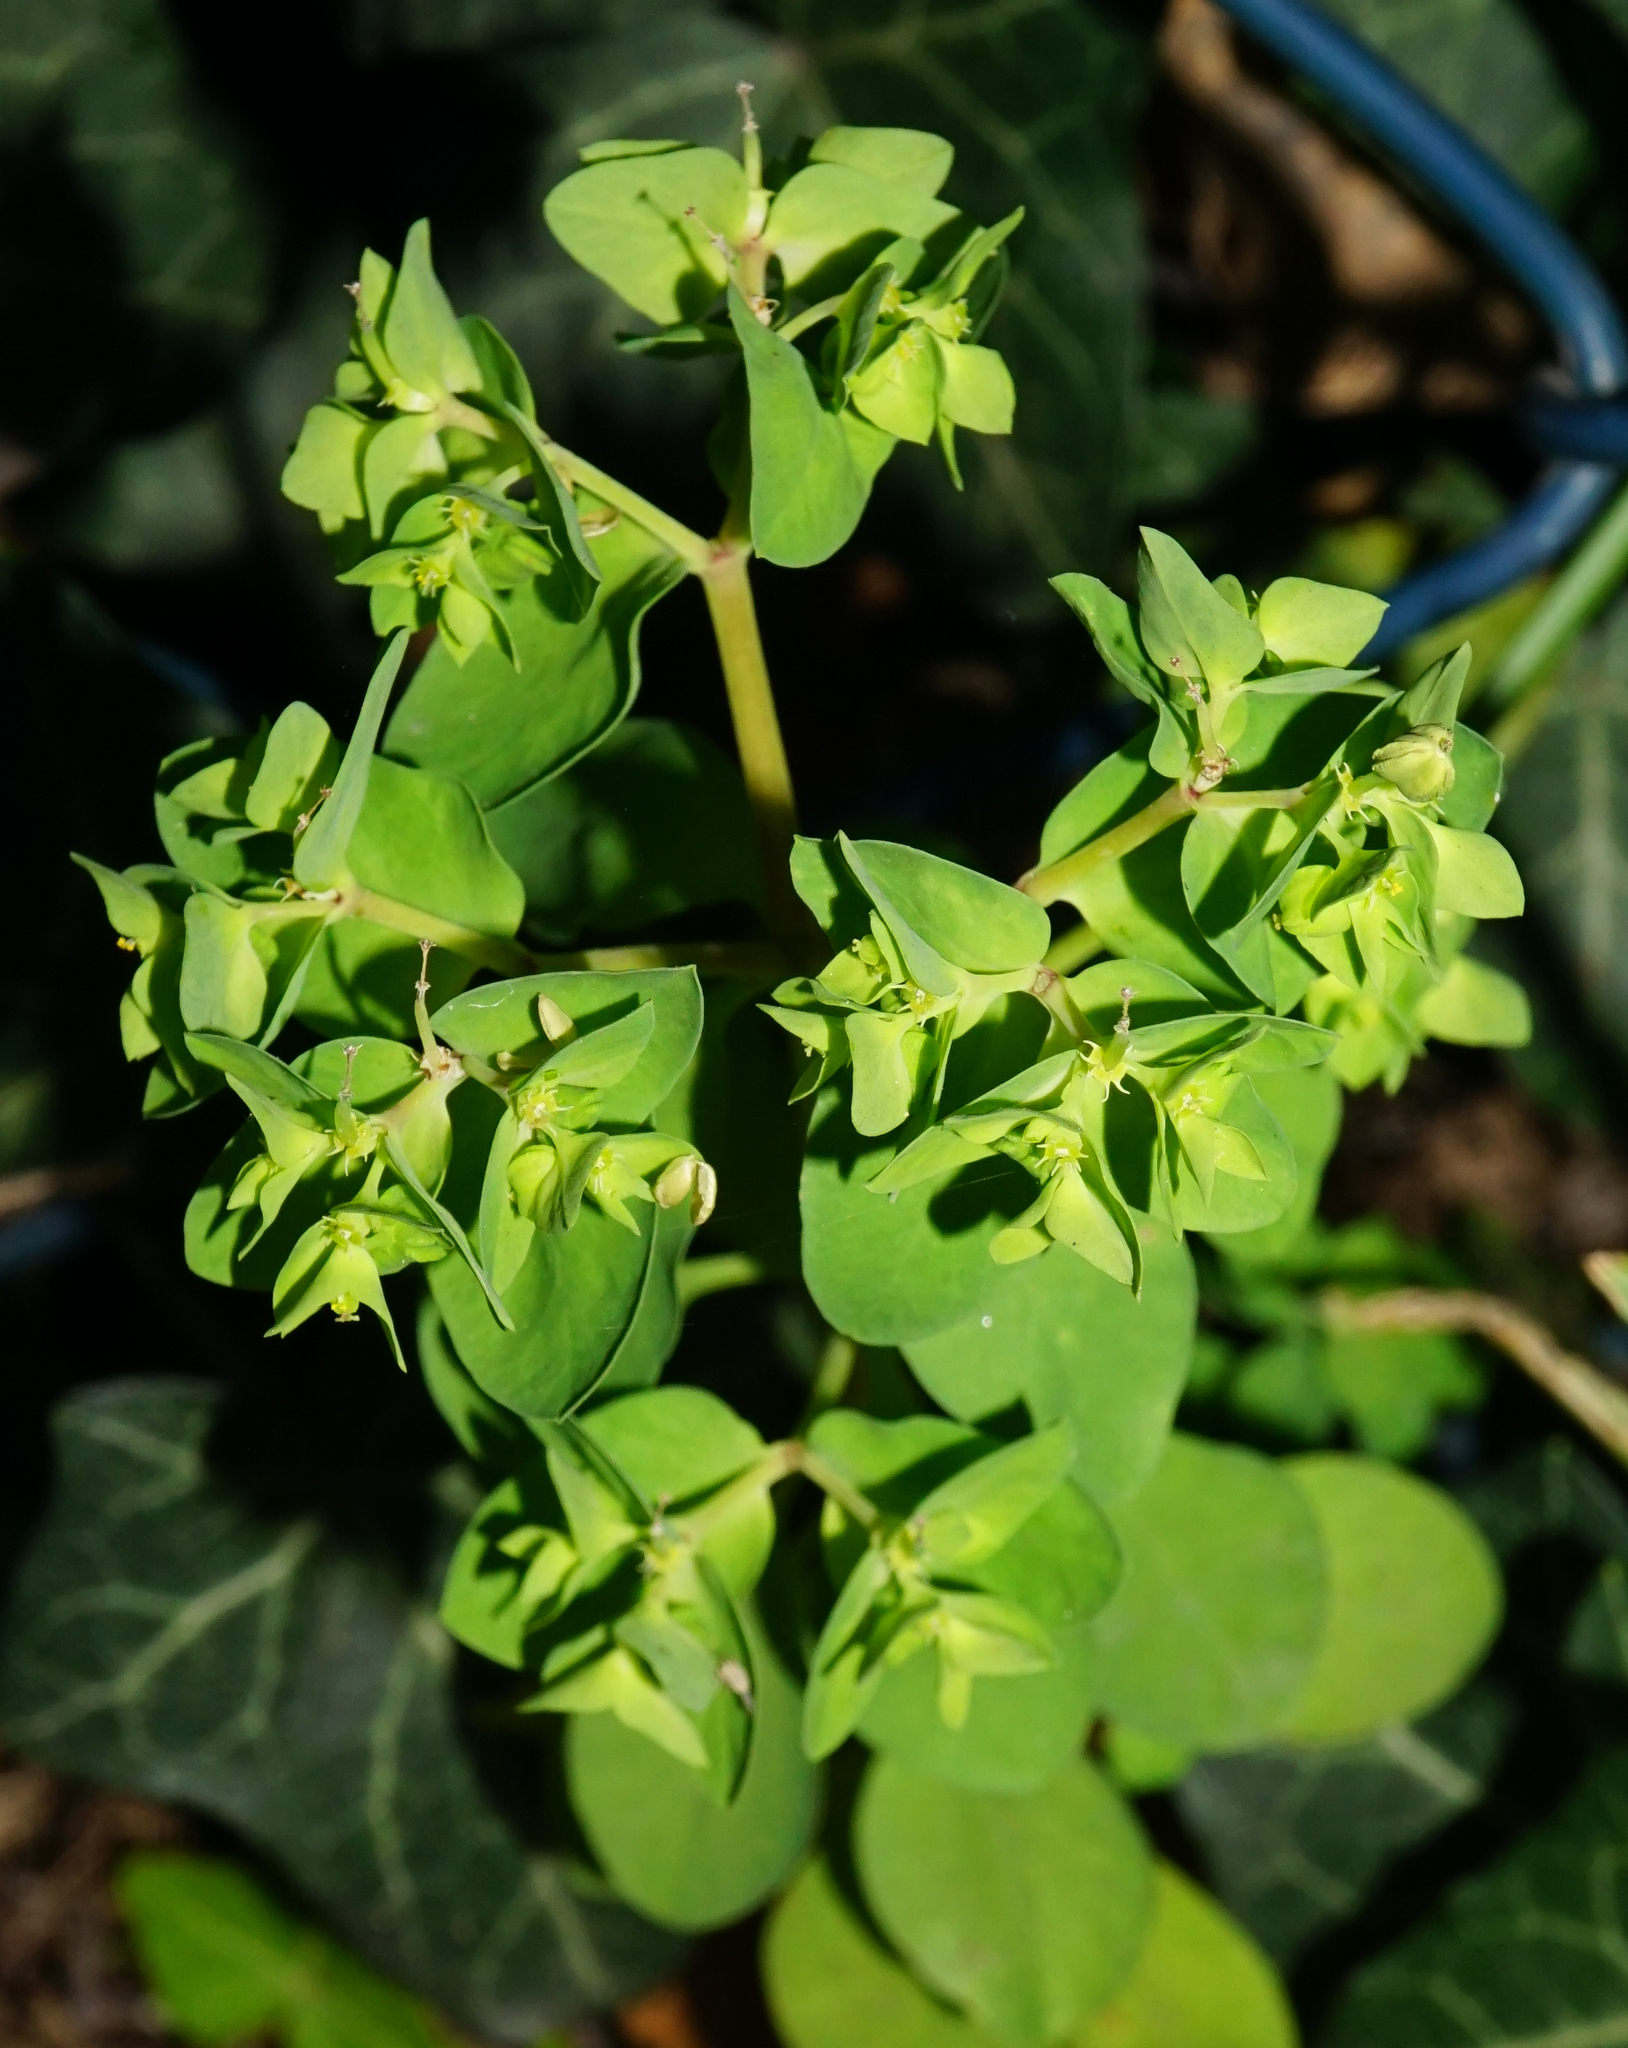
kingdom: Plantae
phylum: Tracheophyta
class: Magnoliopsida
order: Malpighiales
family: Euphorbiaceae
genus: Euphorbia
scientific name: Euphorbia peplus
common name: Petty spurge
